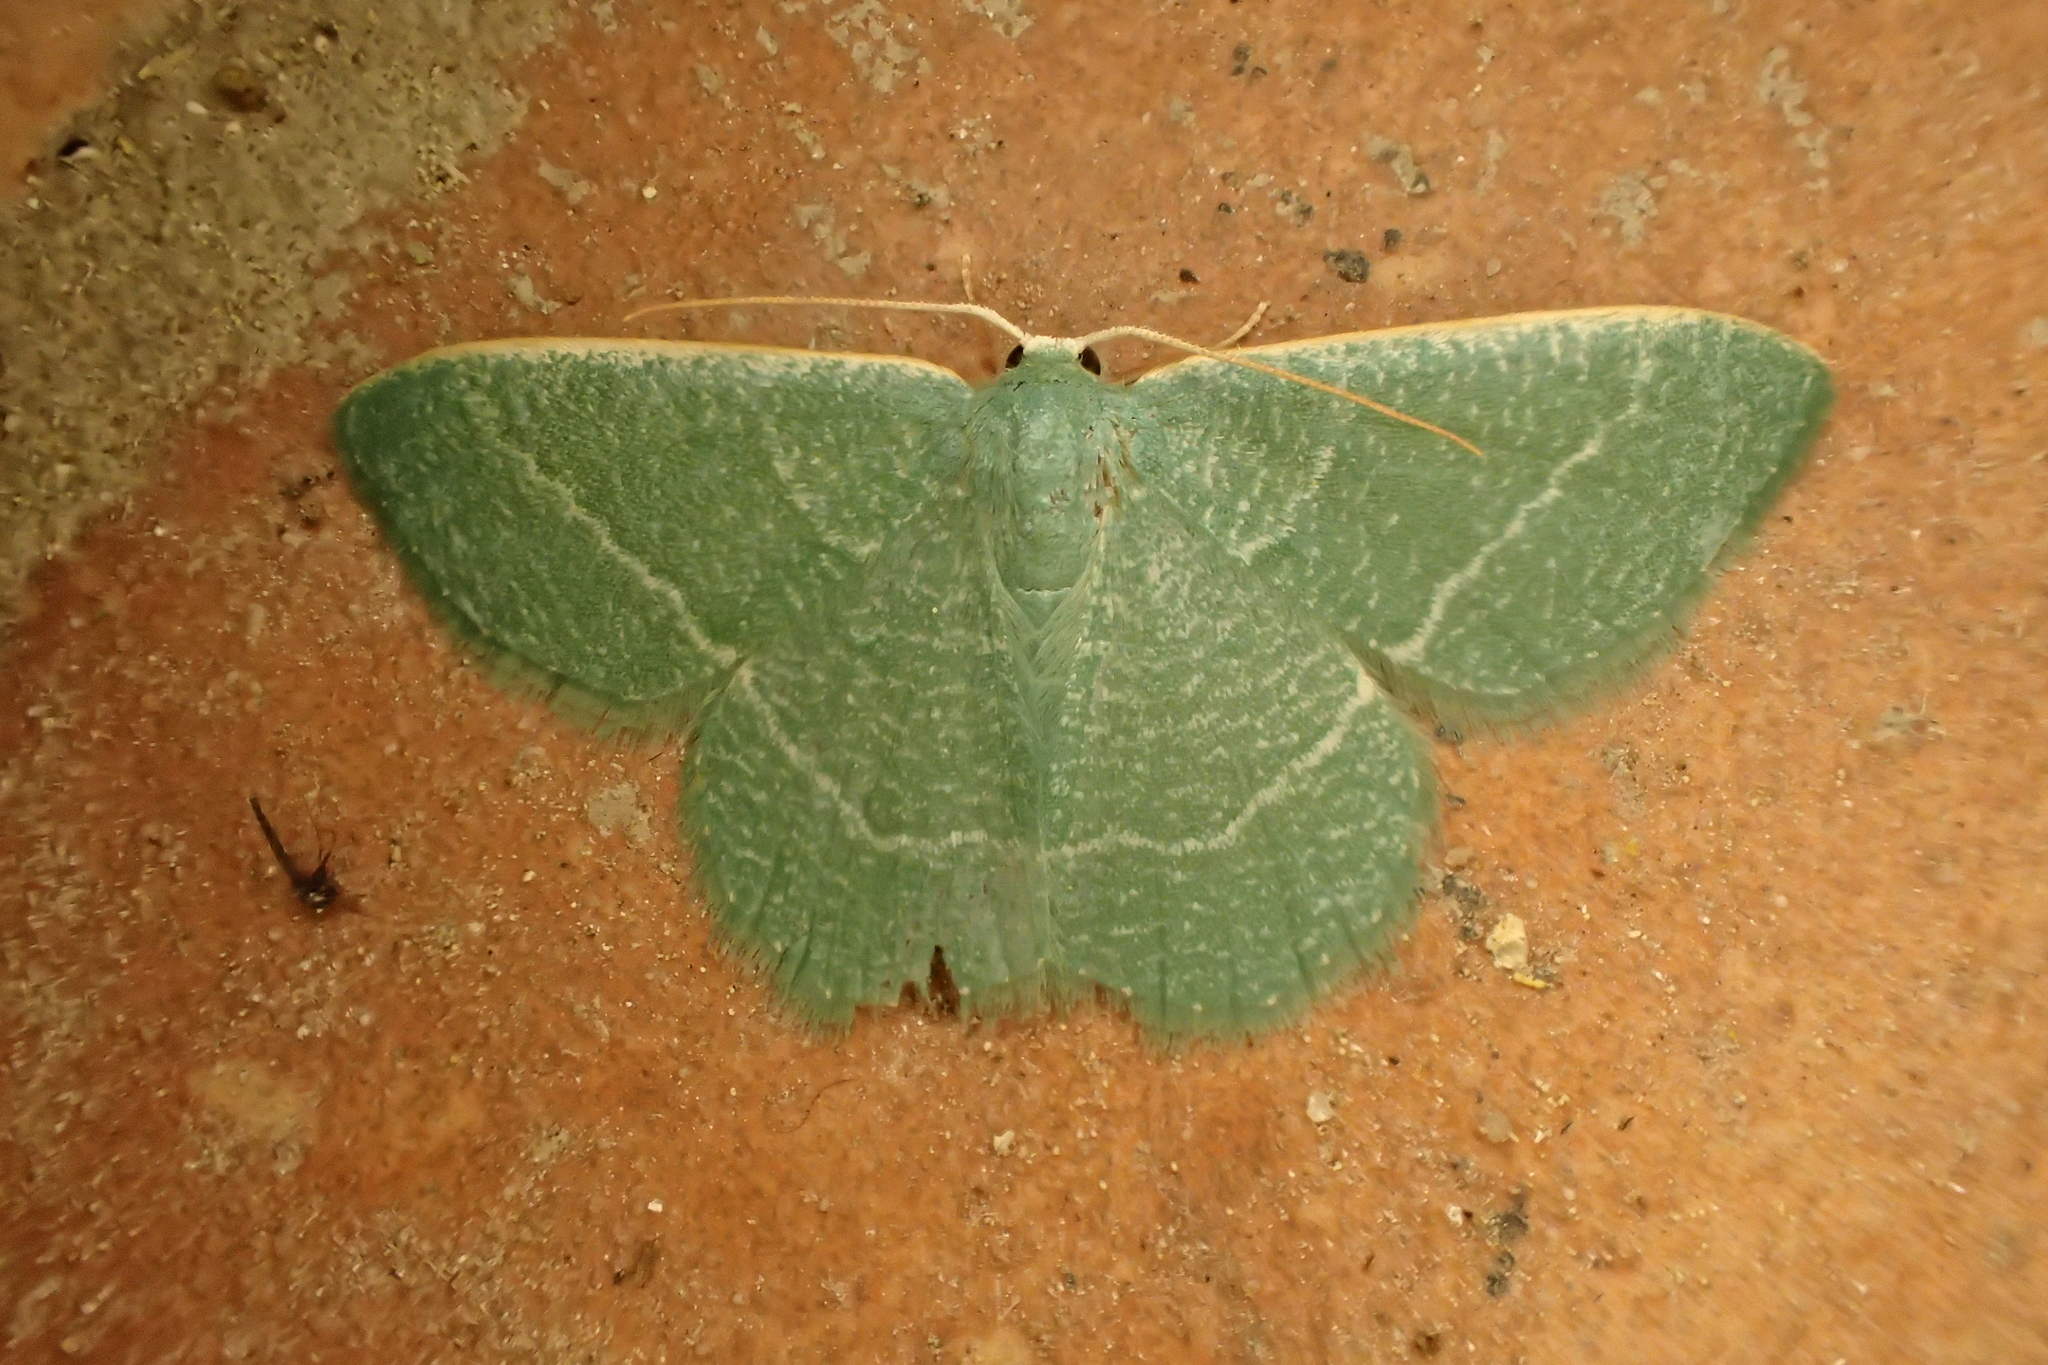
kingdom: Animalia
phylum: Arthropoda
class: Insecta
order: Lepidoptera
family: Geometridae
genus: Chlorissa
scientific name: Chlorissa etruscaria
